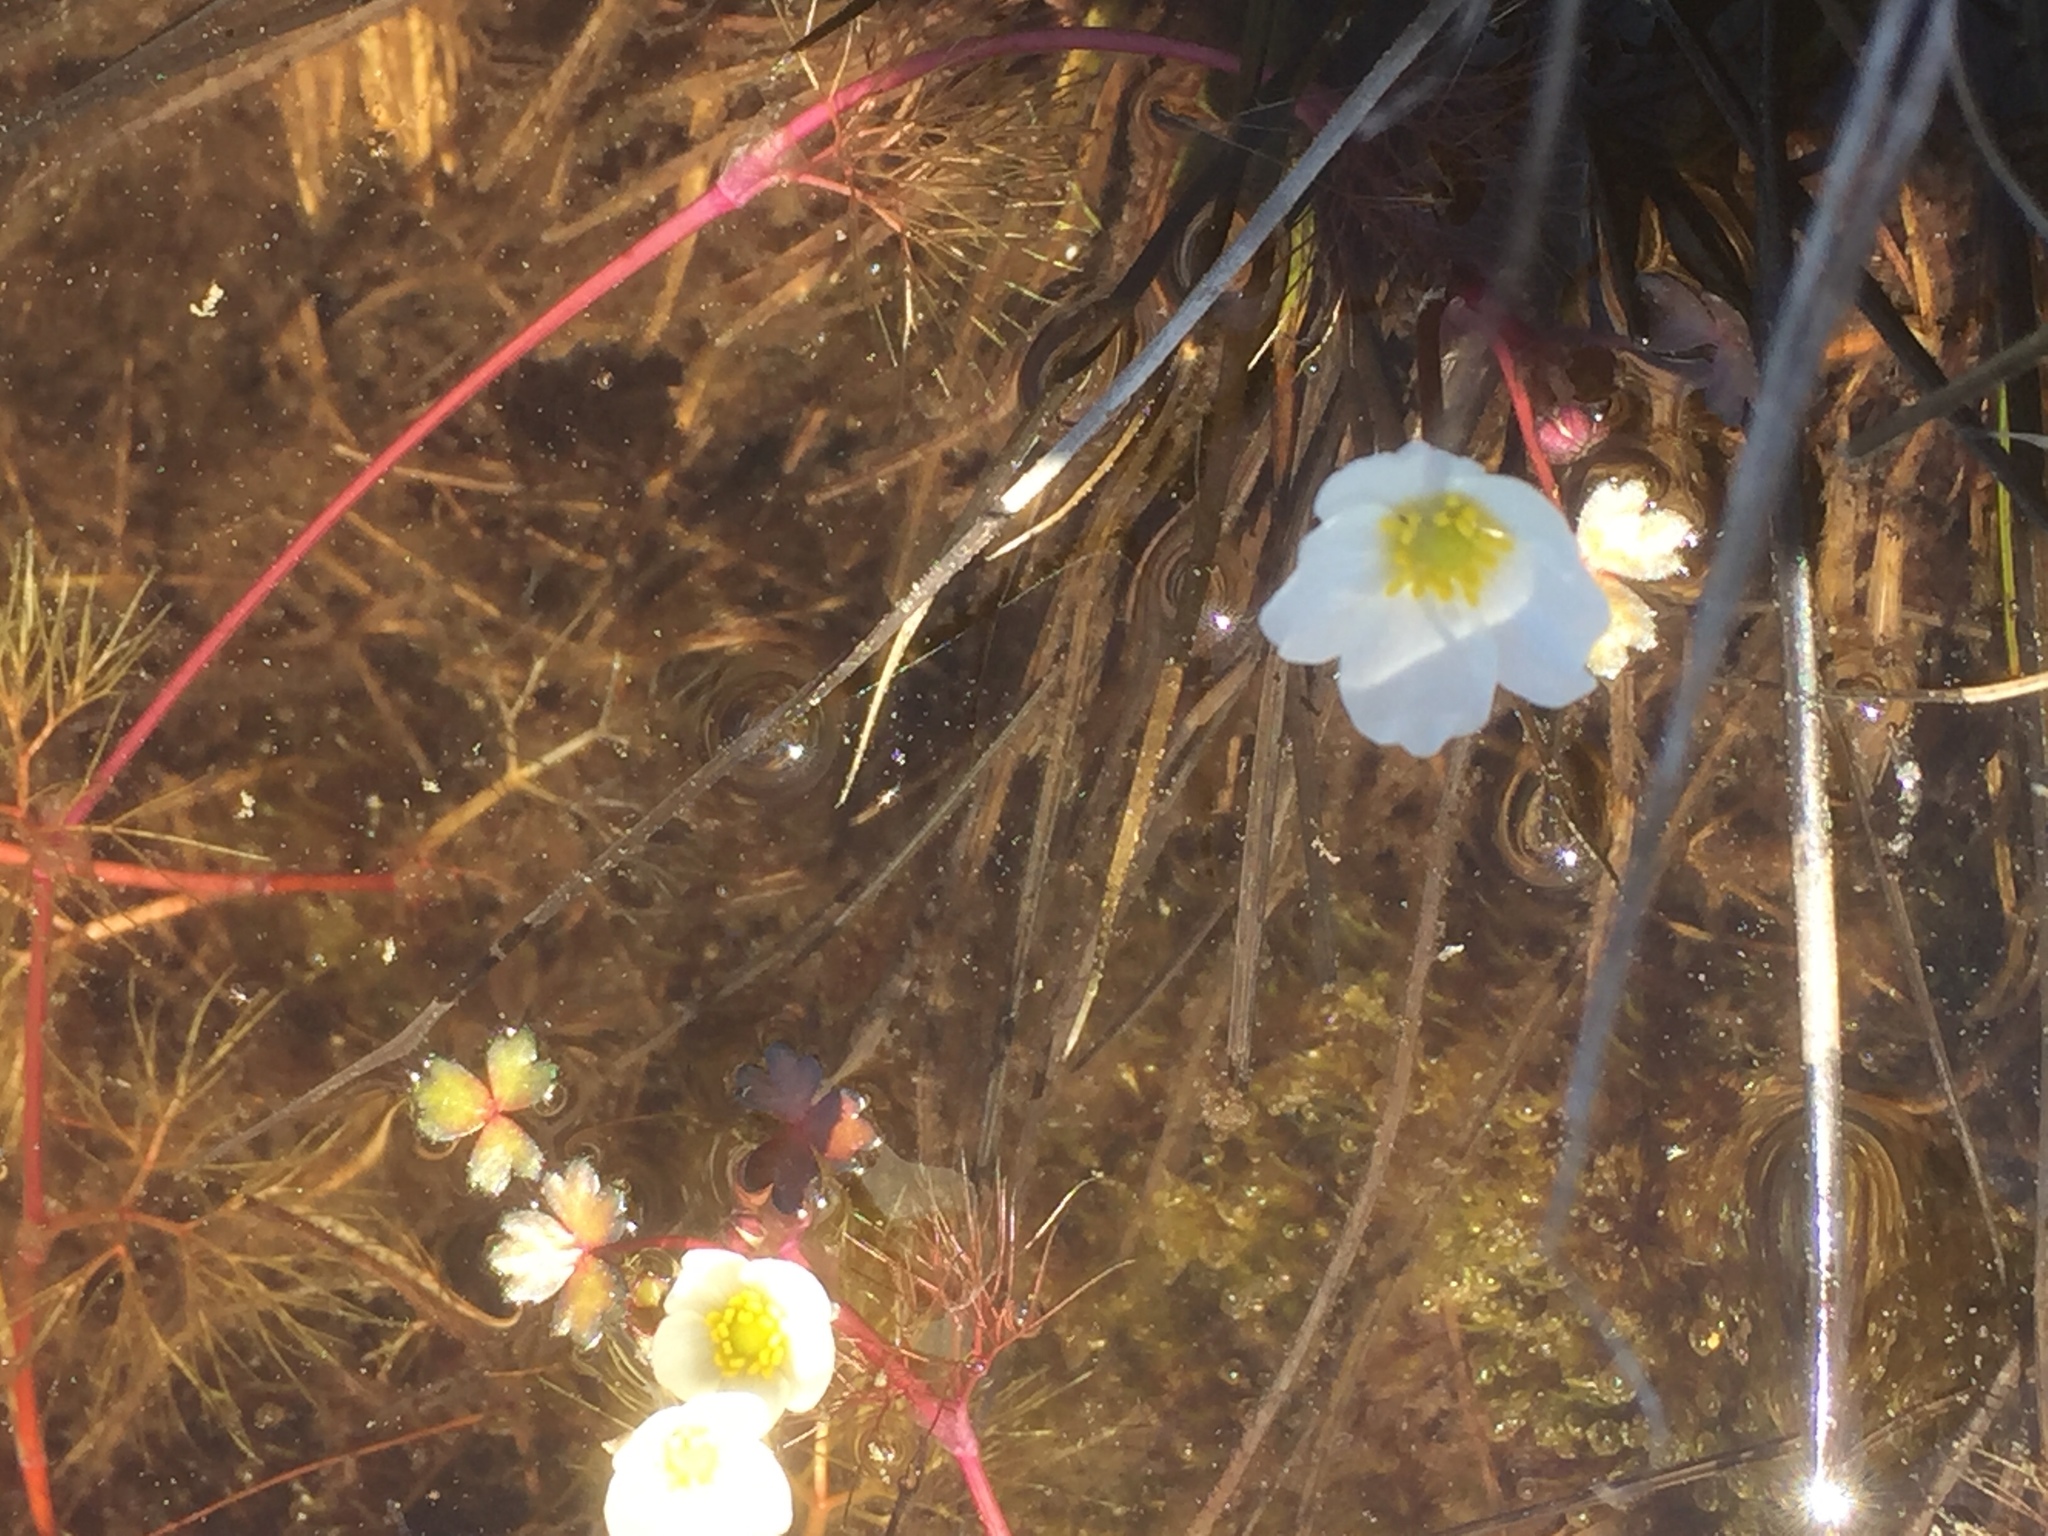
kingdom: Plantae
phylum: Tracheophyta
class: Magnoliopsida
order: Ranunculales
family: Ranunculaceae
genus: Ranunculus
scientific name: Ranunculus ololeucos
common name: White-flowered buttercup
